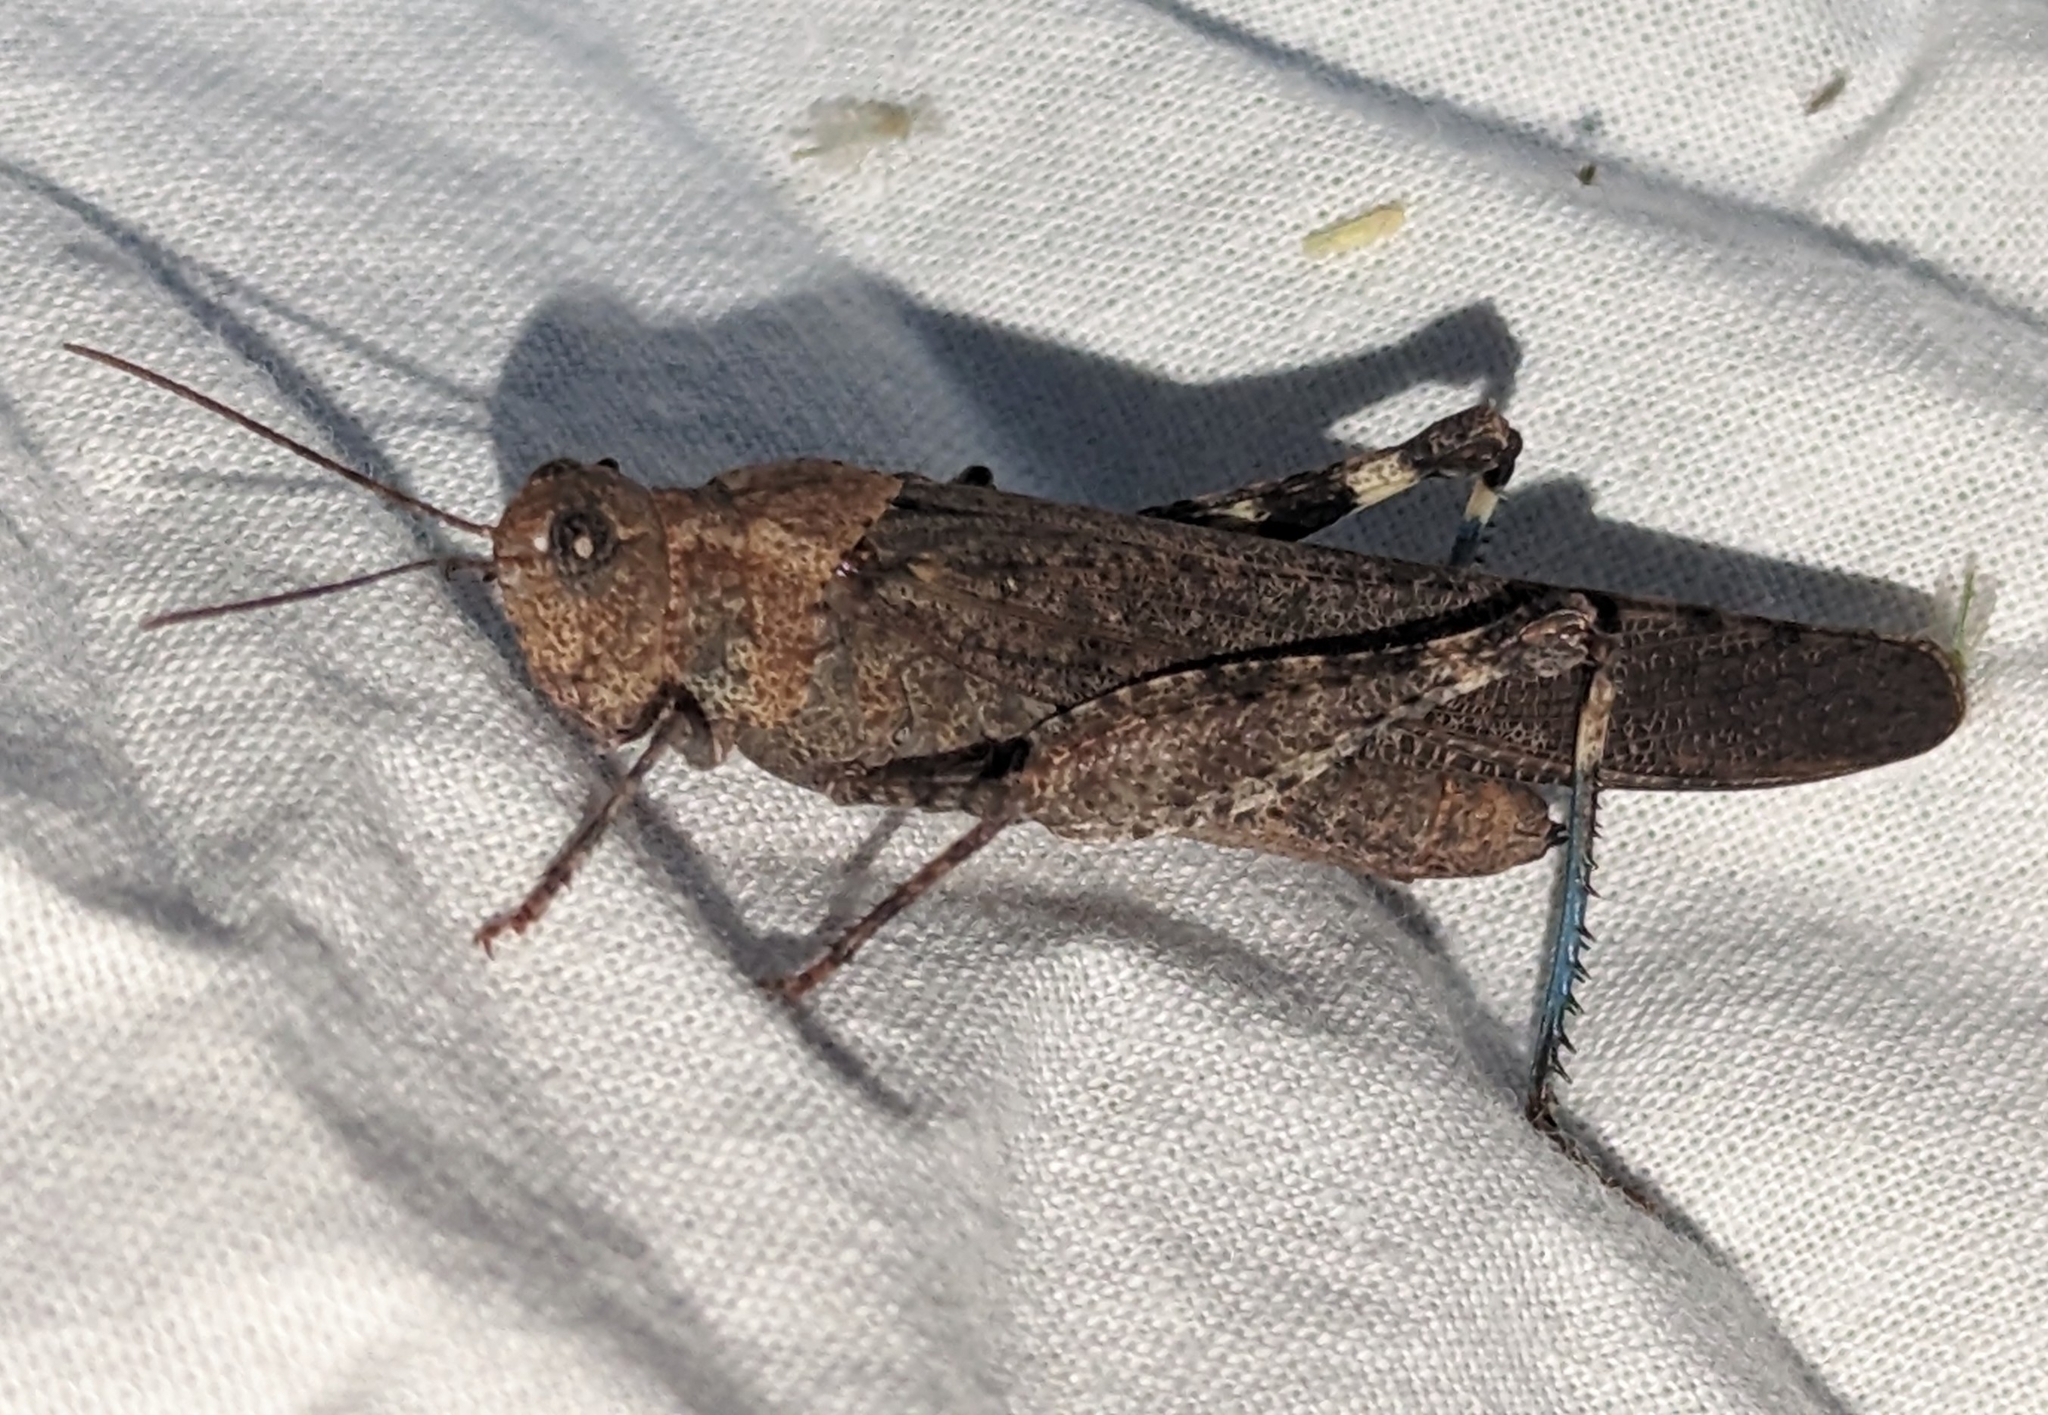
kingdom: Animalia
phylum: Arthropoda
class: Insecta
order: Orthoptera
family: Acrididae
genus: Trimerotropis
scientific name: Trimerotropis verruculata
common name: Crackling forest grasshopper
